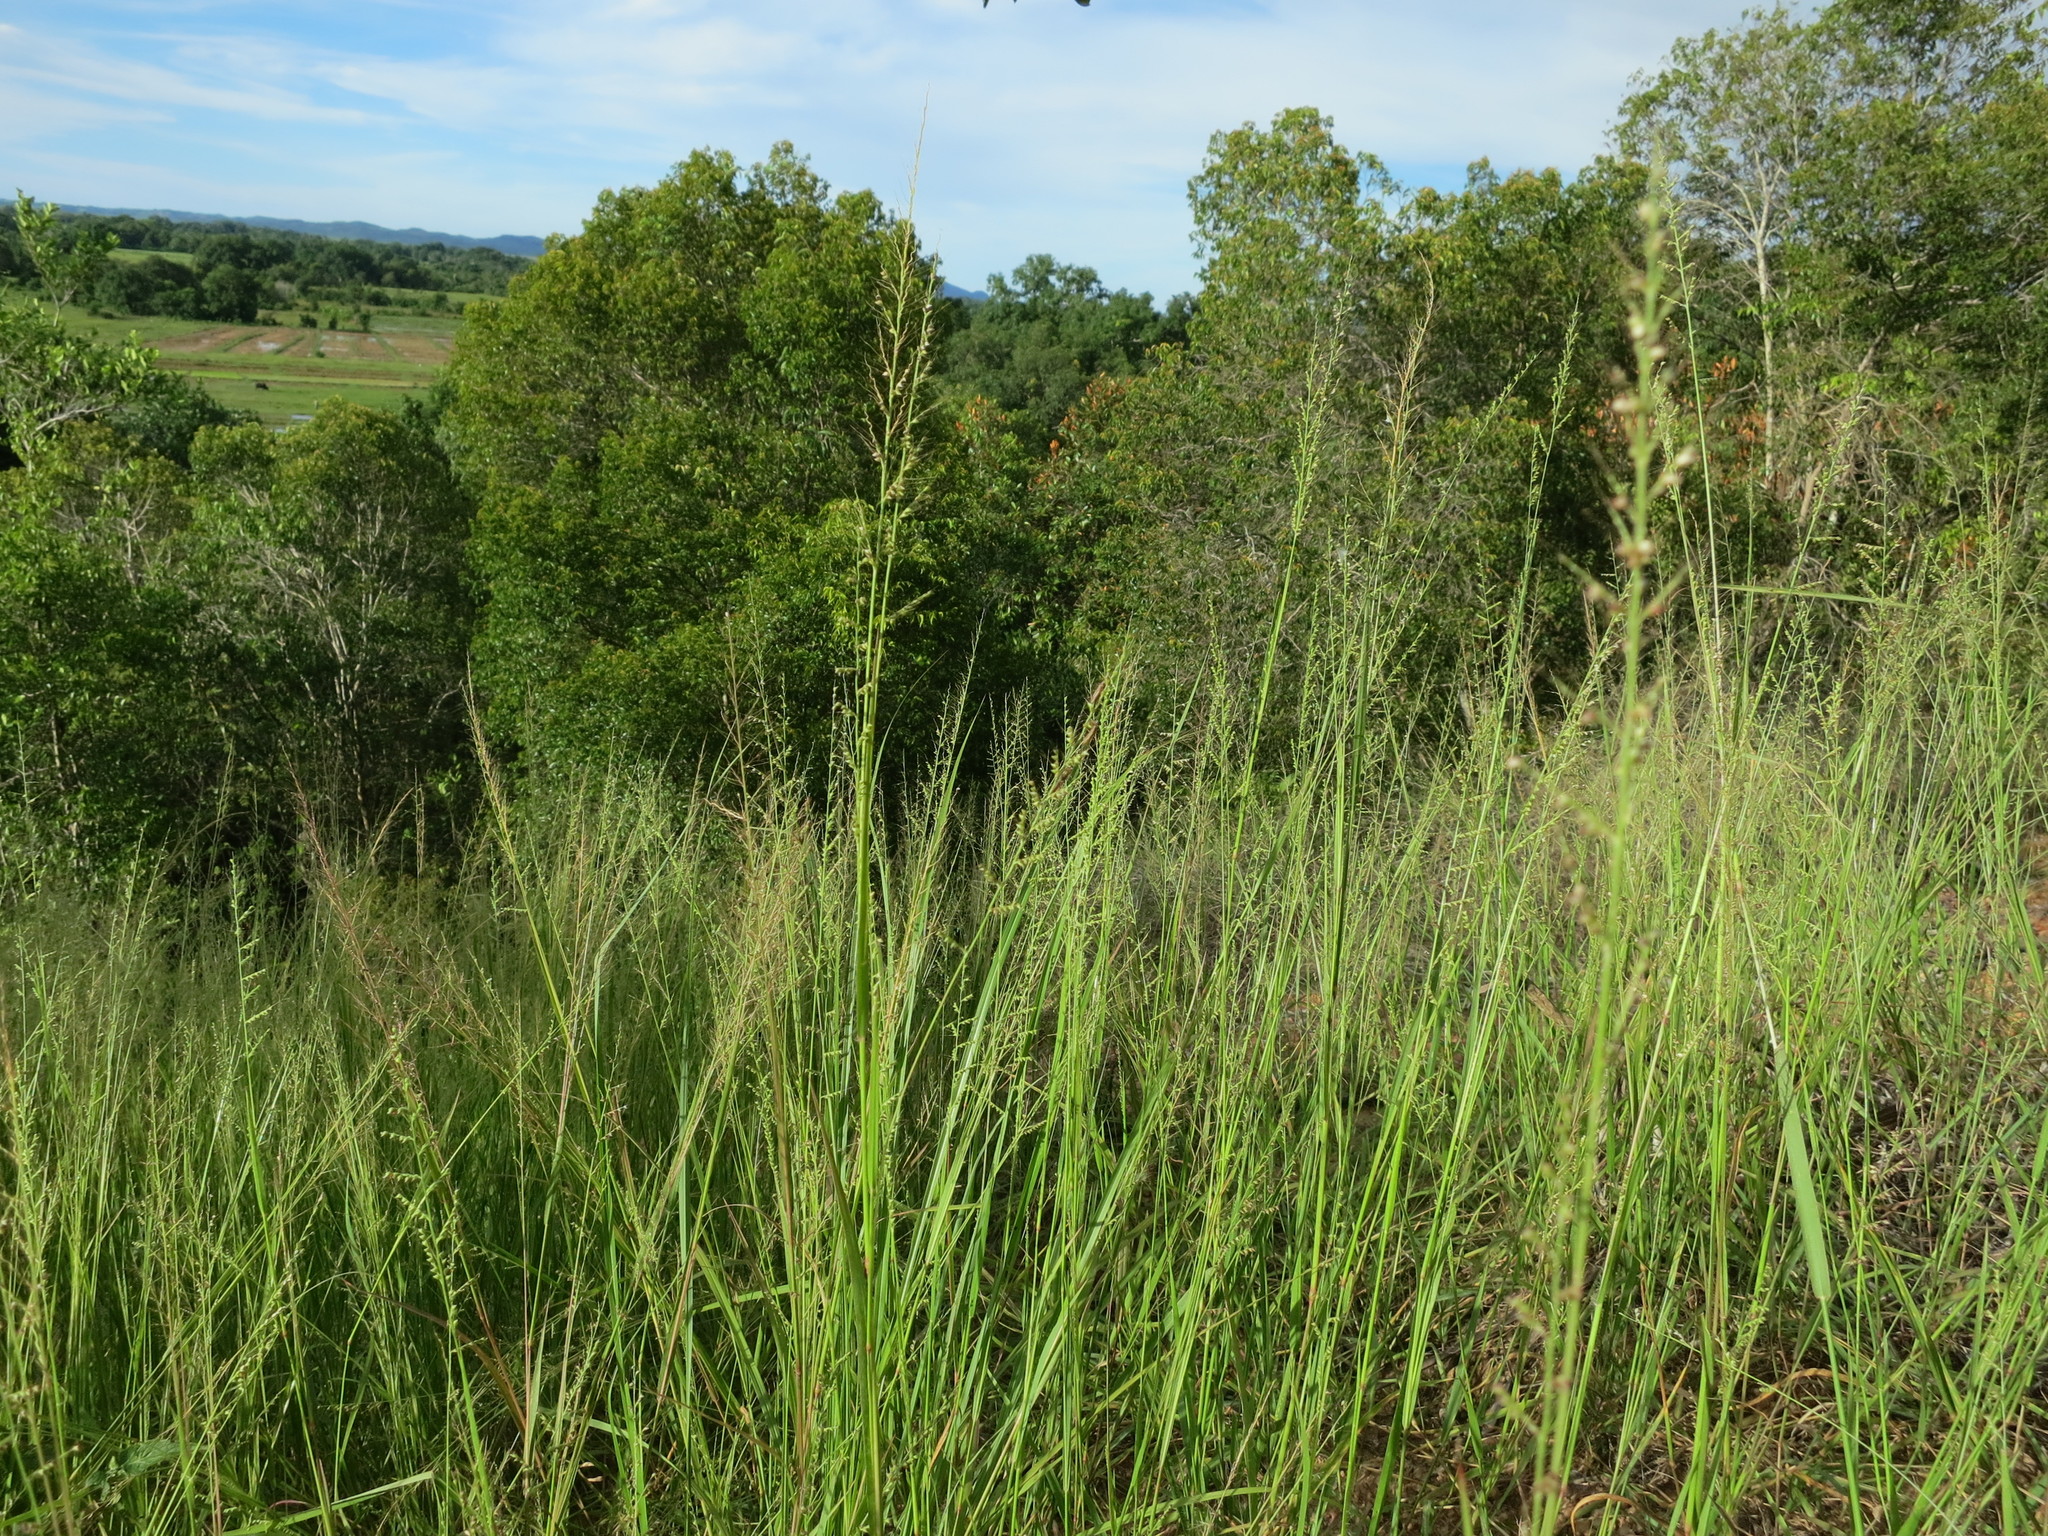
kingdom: Plantae
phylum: Tracheophyta
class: Liliopsida
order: Poales
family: Poaceae
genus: Setaria
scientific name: Setaria madecassa
